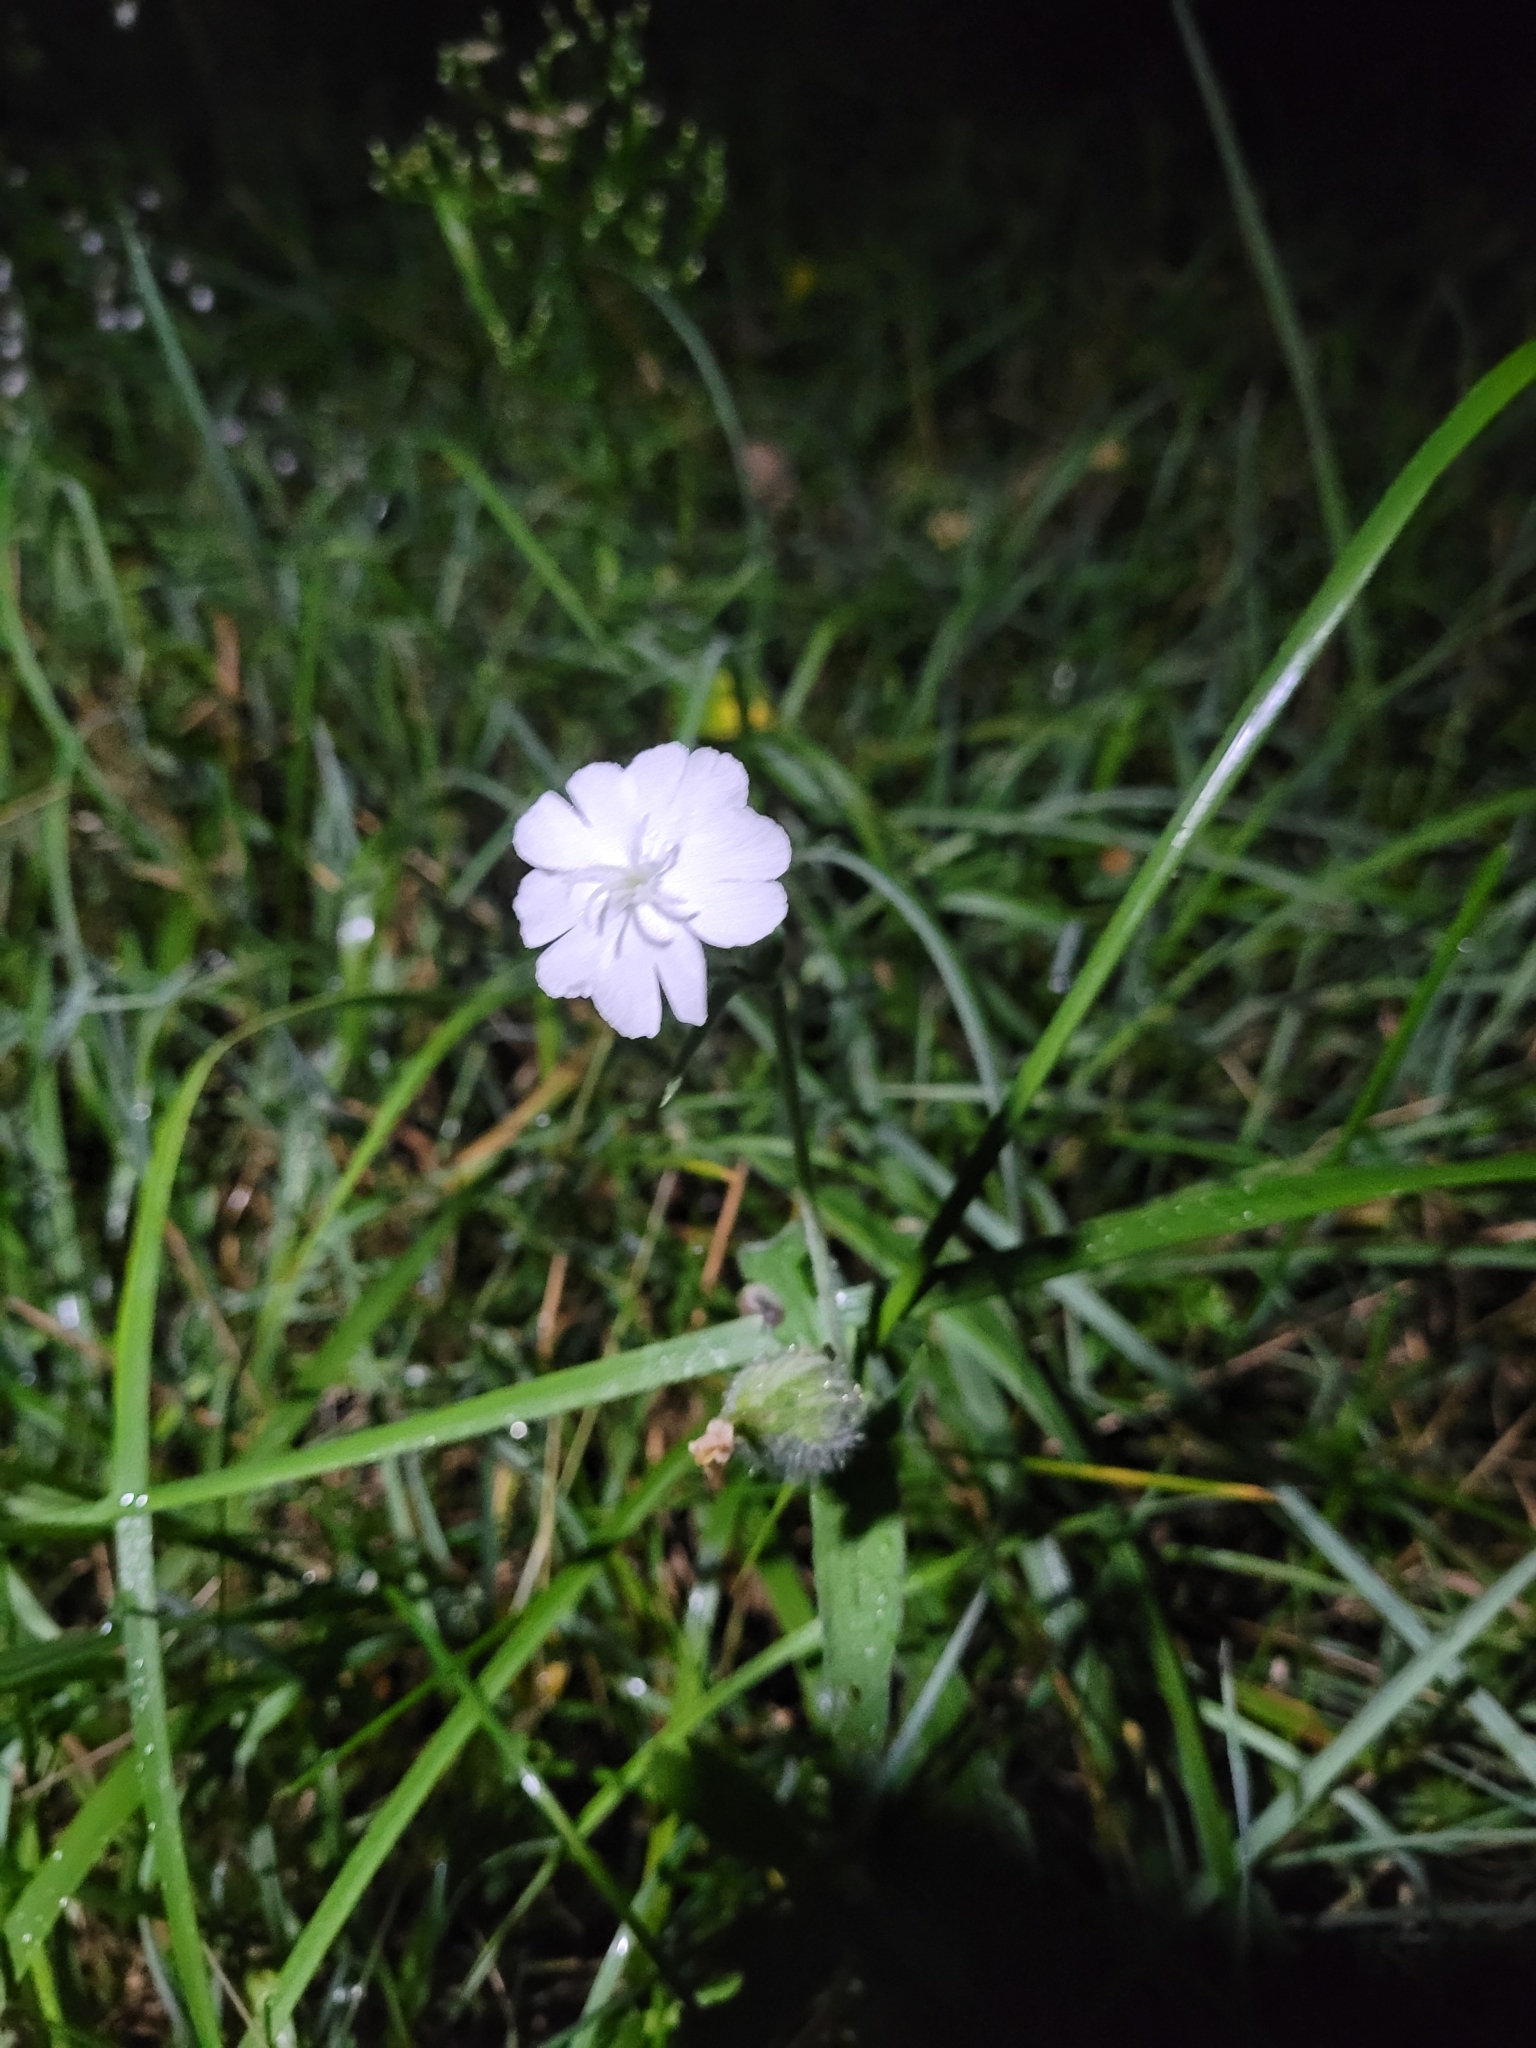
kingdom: Plantae
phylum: Tracheophyta
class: Magnoliopsida
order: Caryophyllales
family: Caryophyllaceae
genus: Silene
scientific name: Silene latifolia
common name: White campion
